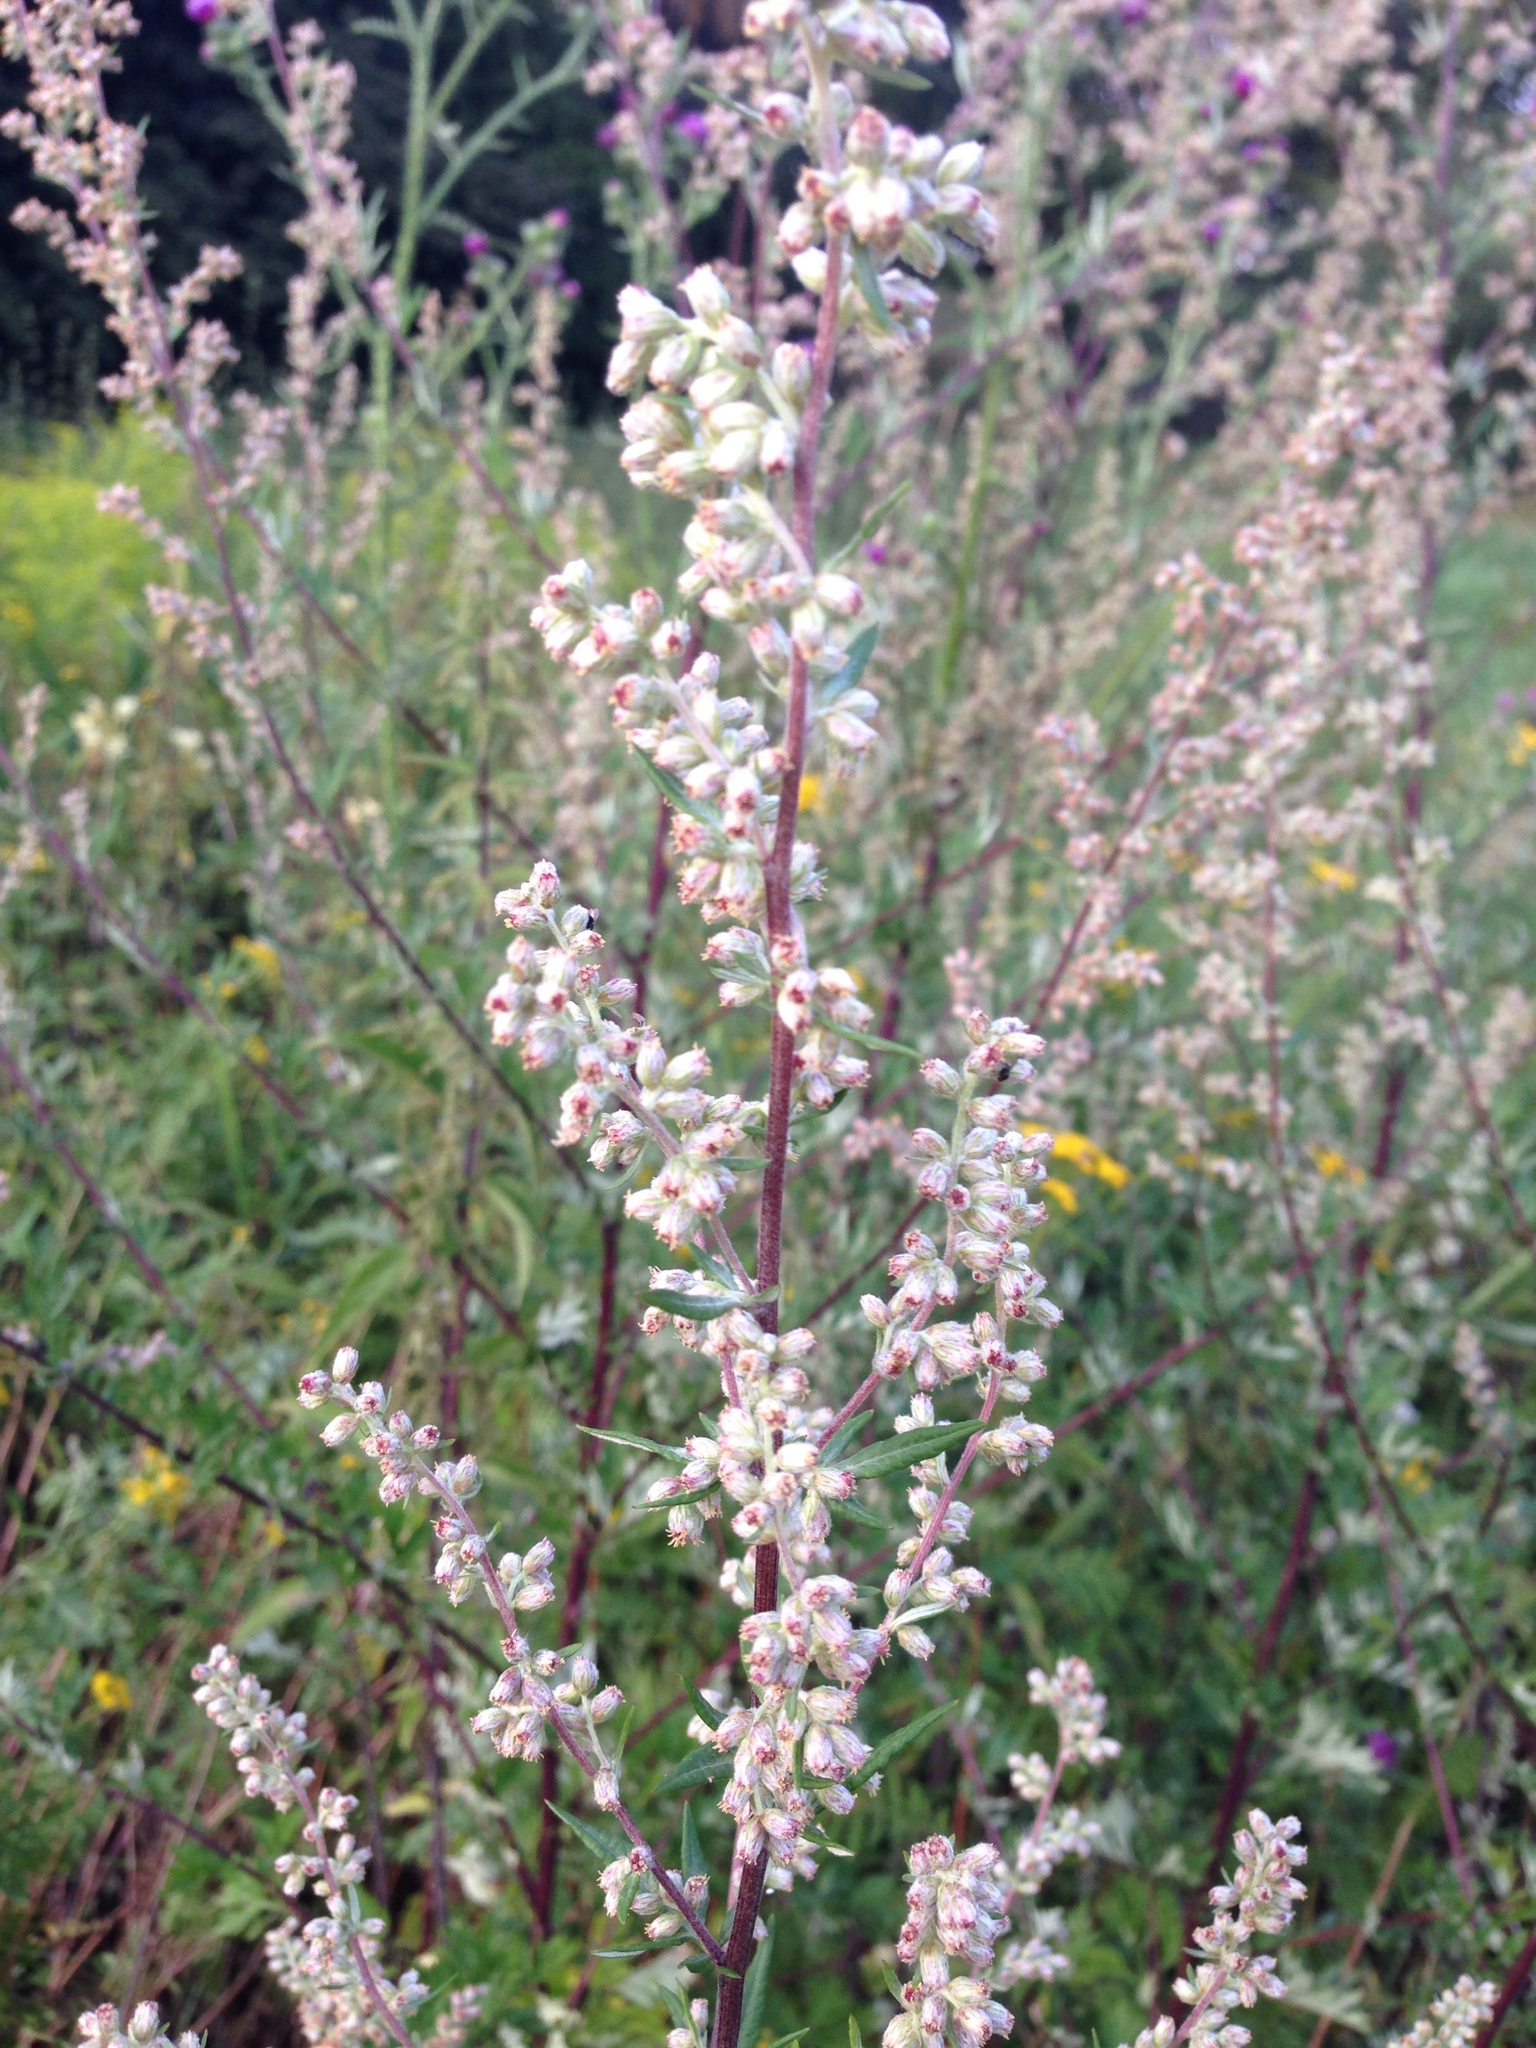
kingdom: Plantae
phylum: Tracheophyta
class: Magnoliopsida
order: Asterales
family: Asteraceae
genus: Artemisia
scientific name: Artemisia vulgaris
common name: Mugwort
